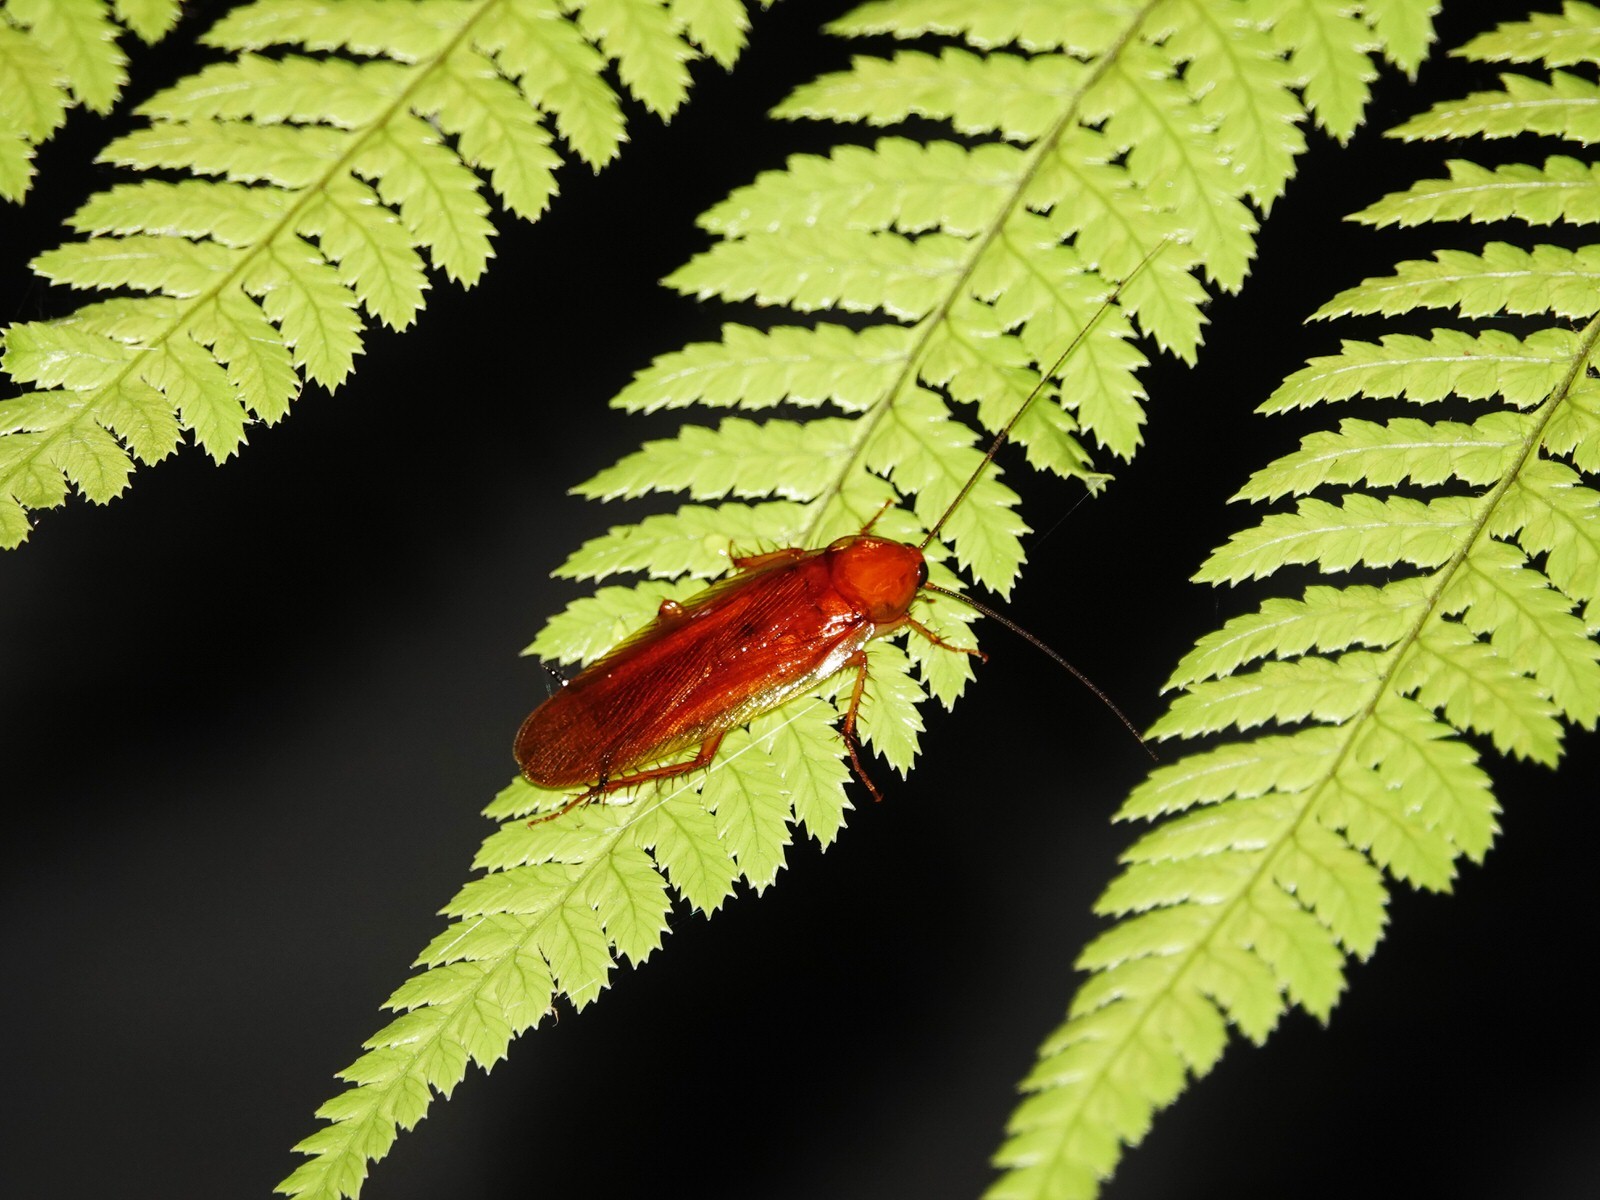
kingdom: Animalia
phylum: Arthropoda
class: Insecta
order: Blattodea
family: Ectobiidae
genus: Neotemnopteryx
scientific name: Neotemnopteryx fulva
